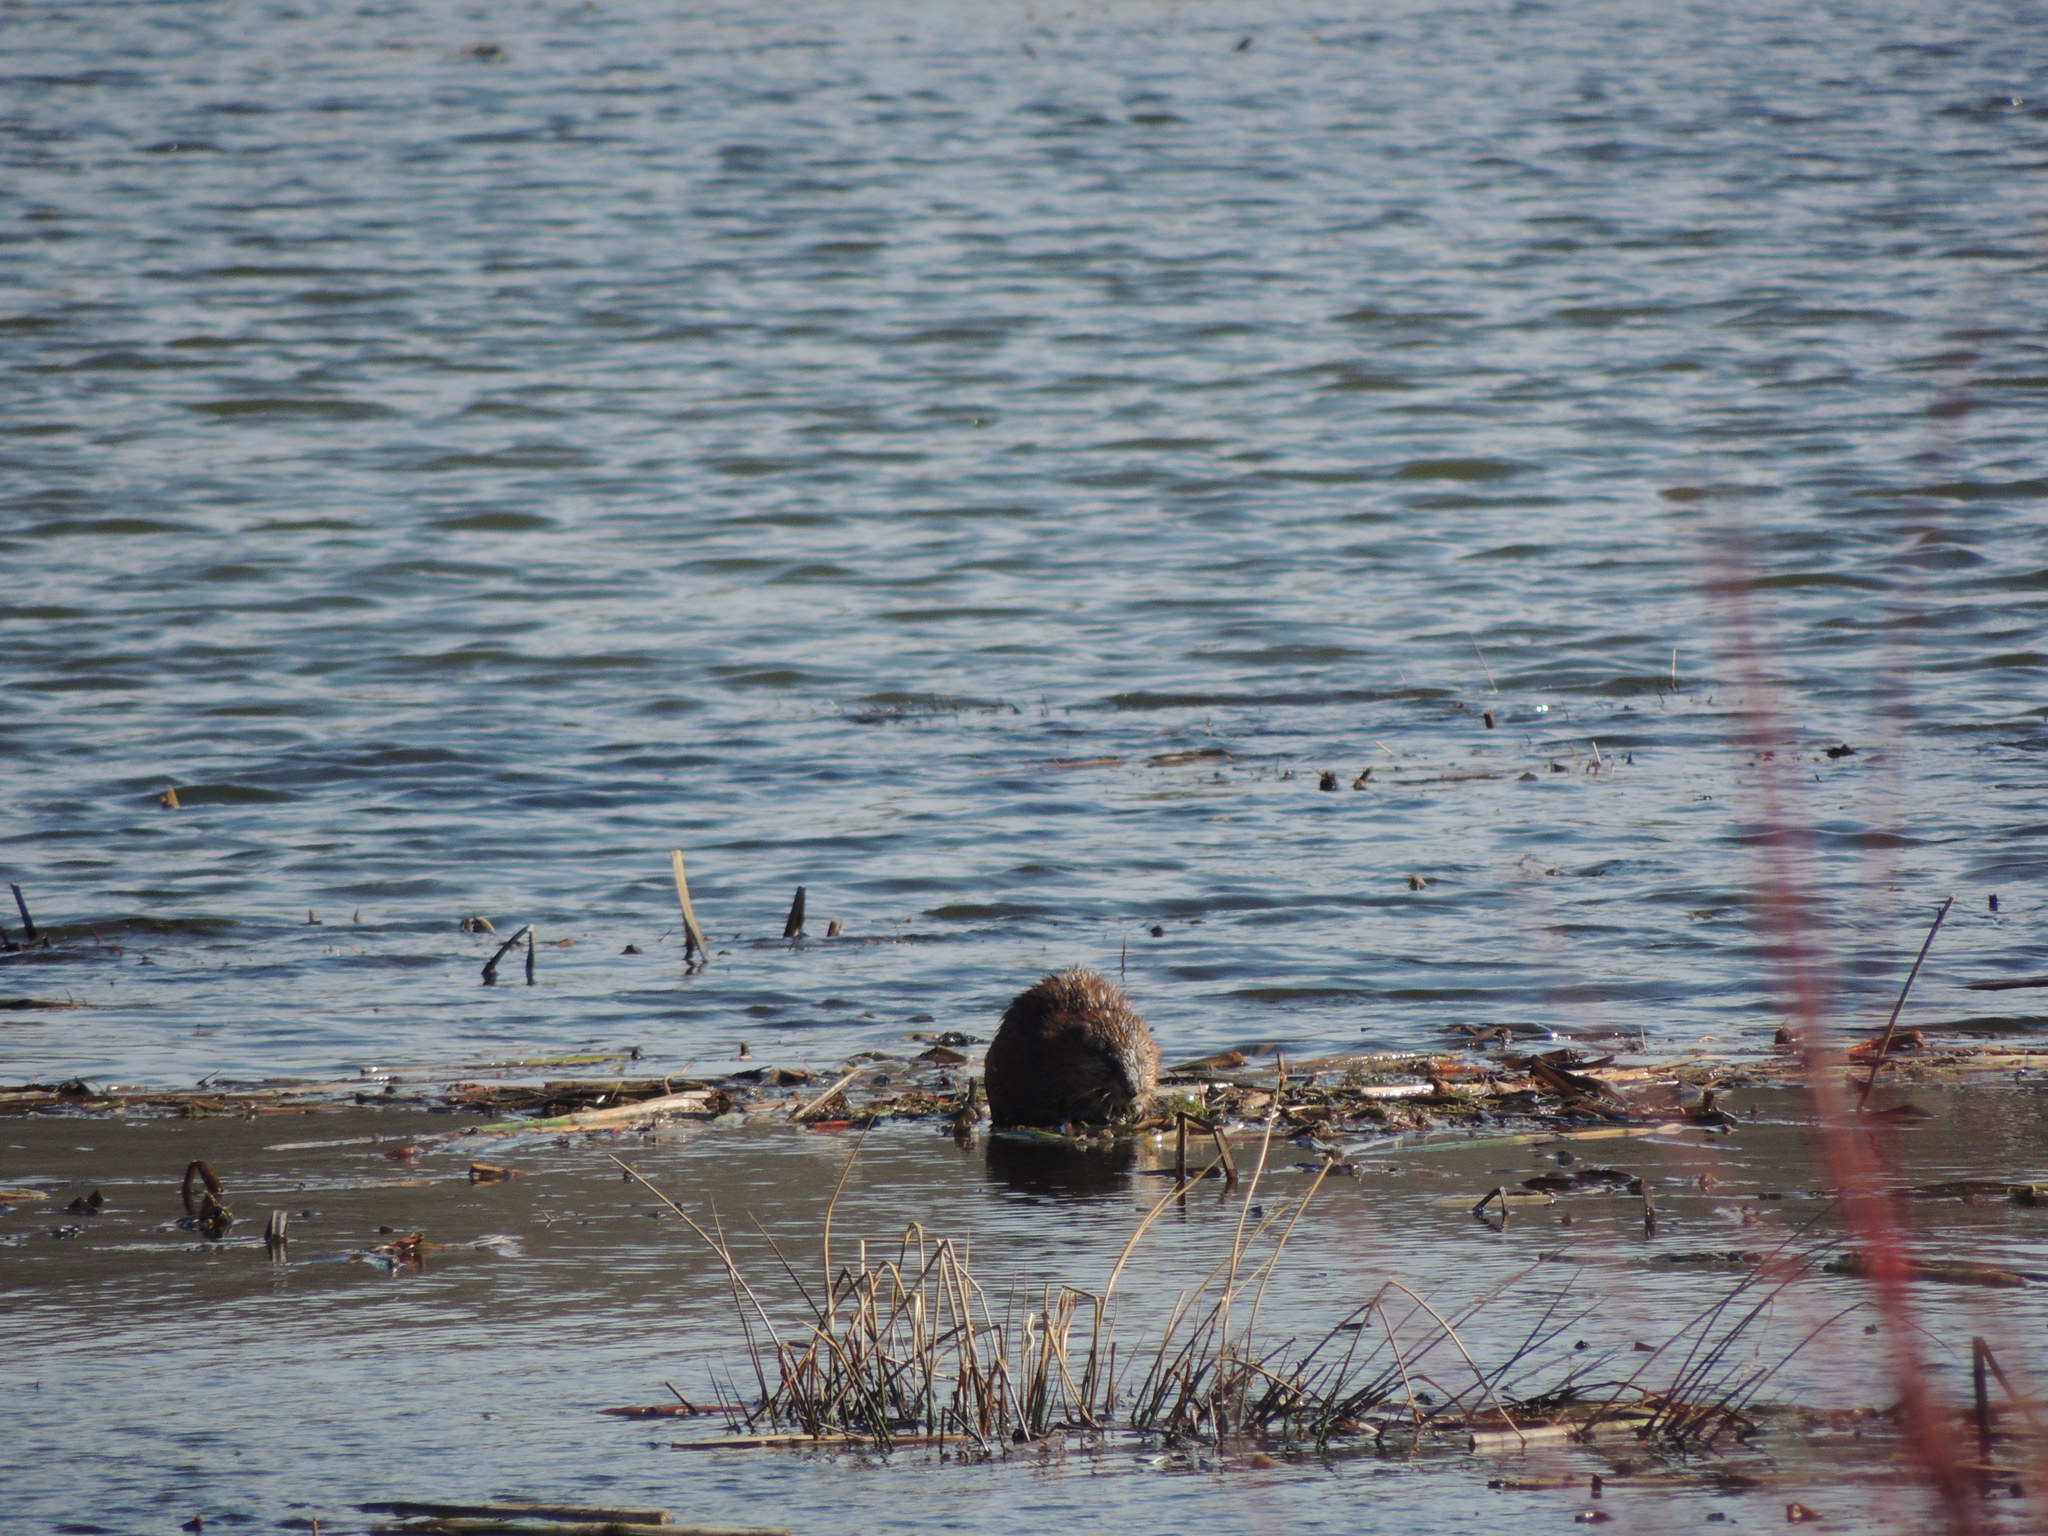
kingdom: Animalia
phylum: Chordata
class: Mammalia
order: Rodentia
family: Cricetidae
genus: Ondatra
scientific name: Ondatra zibethicus
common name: Muskrat
